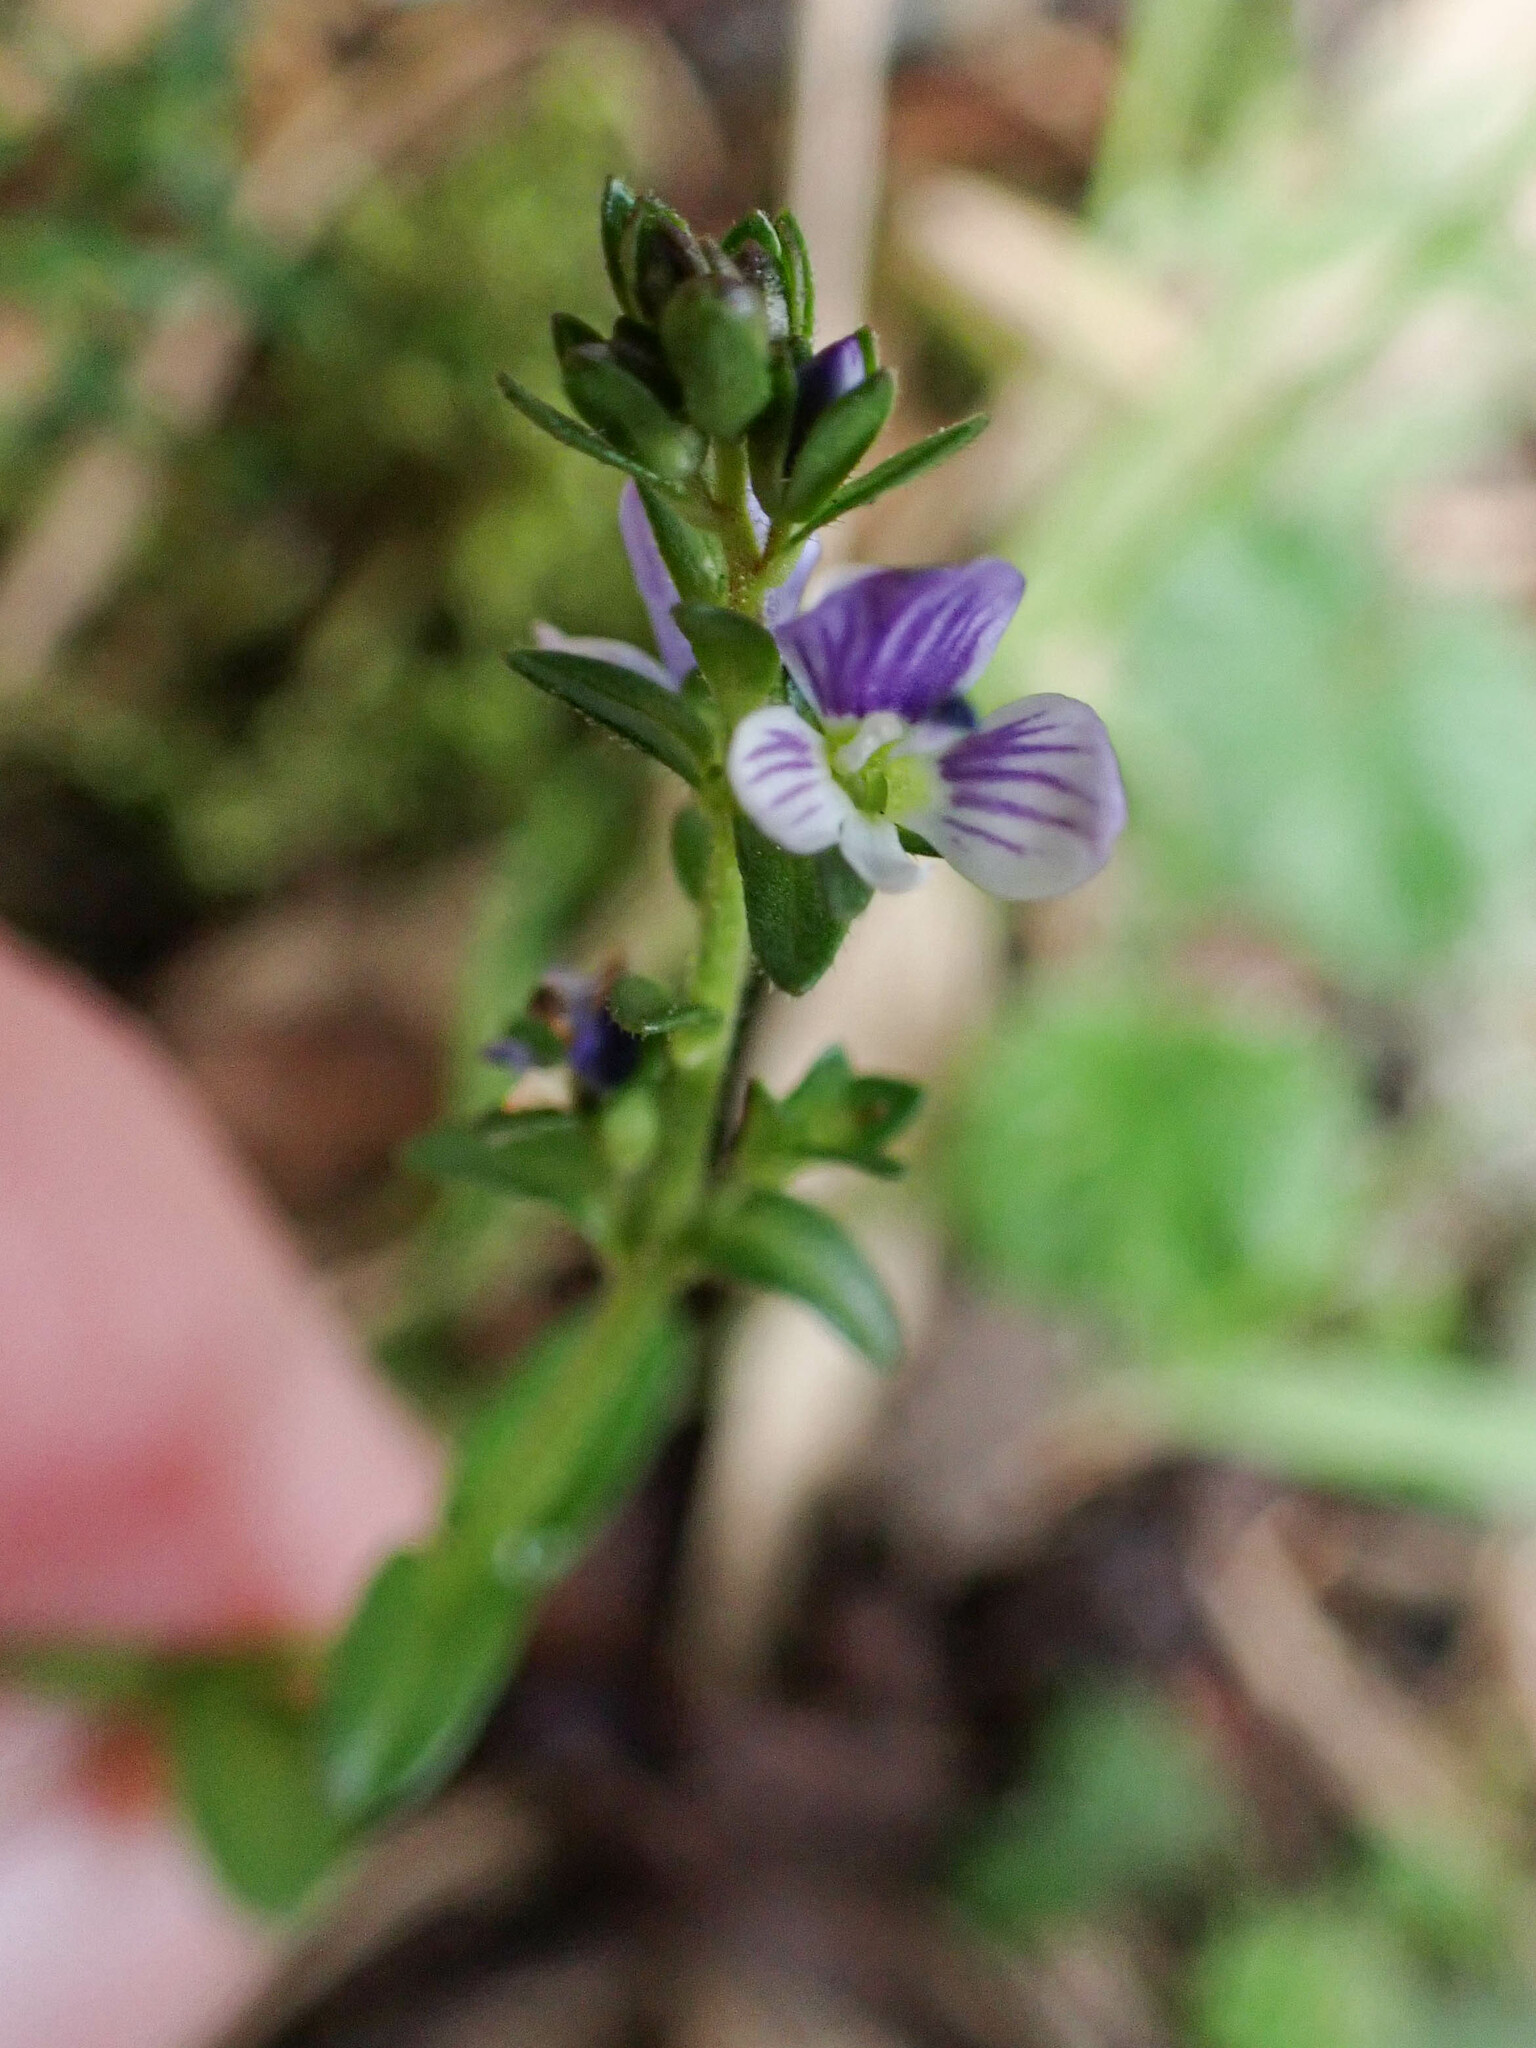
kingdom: Plantae
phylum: Tracheophyta
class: Magnoliopsida
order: Lamiales
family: Plantaginaceae
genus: Veronica
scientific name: Veronica serpyllifolia
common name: Thyme-leaved speedwell
